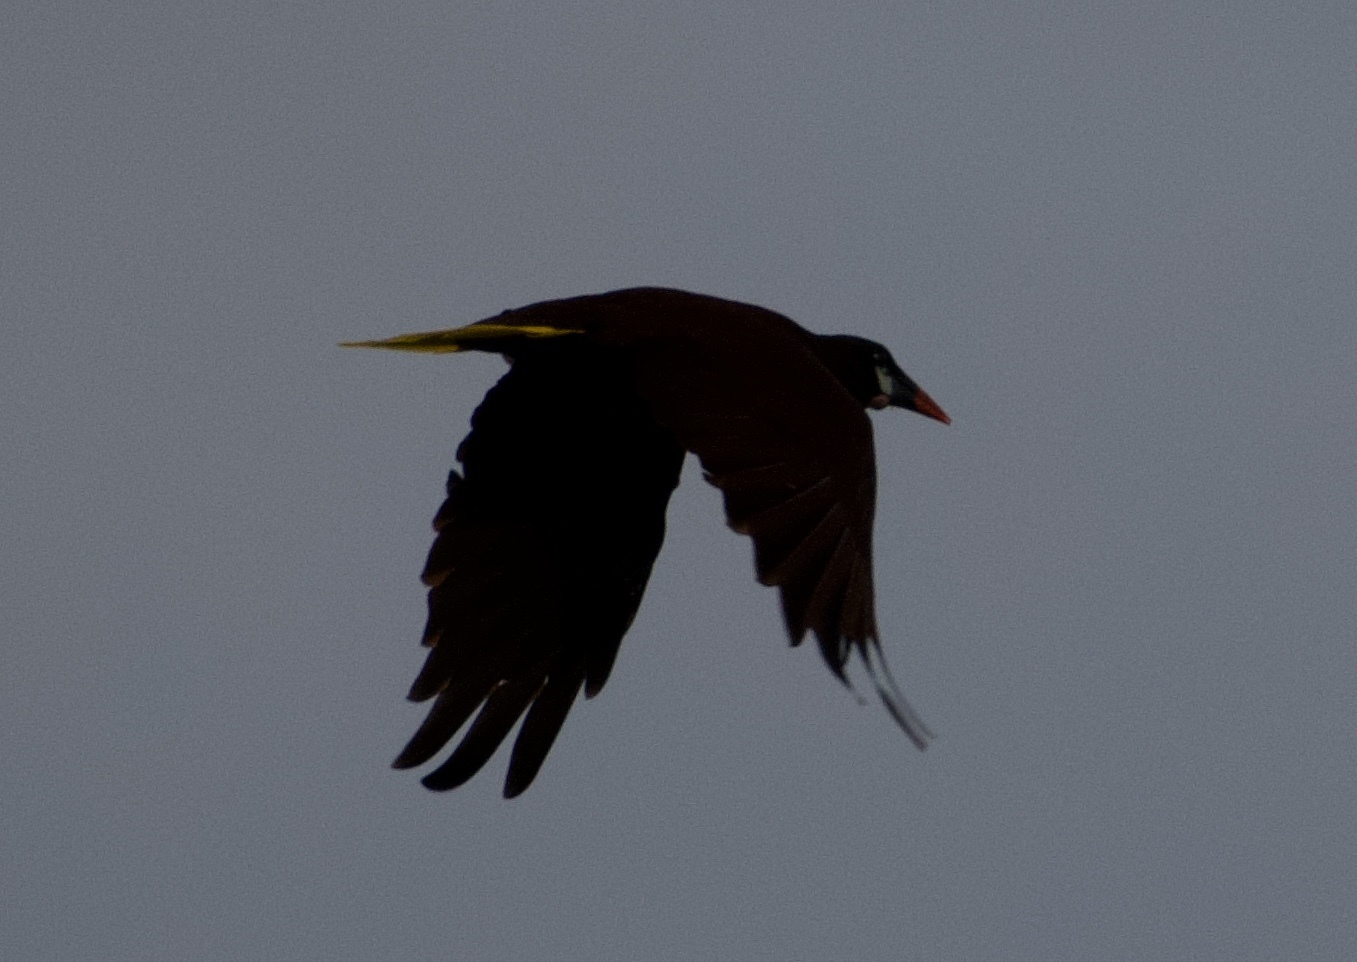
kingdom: Animalia
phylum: Chordata
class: Aves
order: Passeriformes
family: Icteridae
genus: Psarocolius
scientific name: Psarocolius montezuma
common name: Montezuma oropendola
